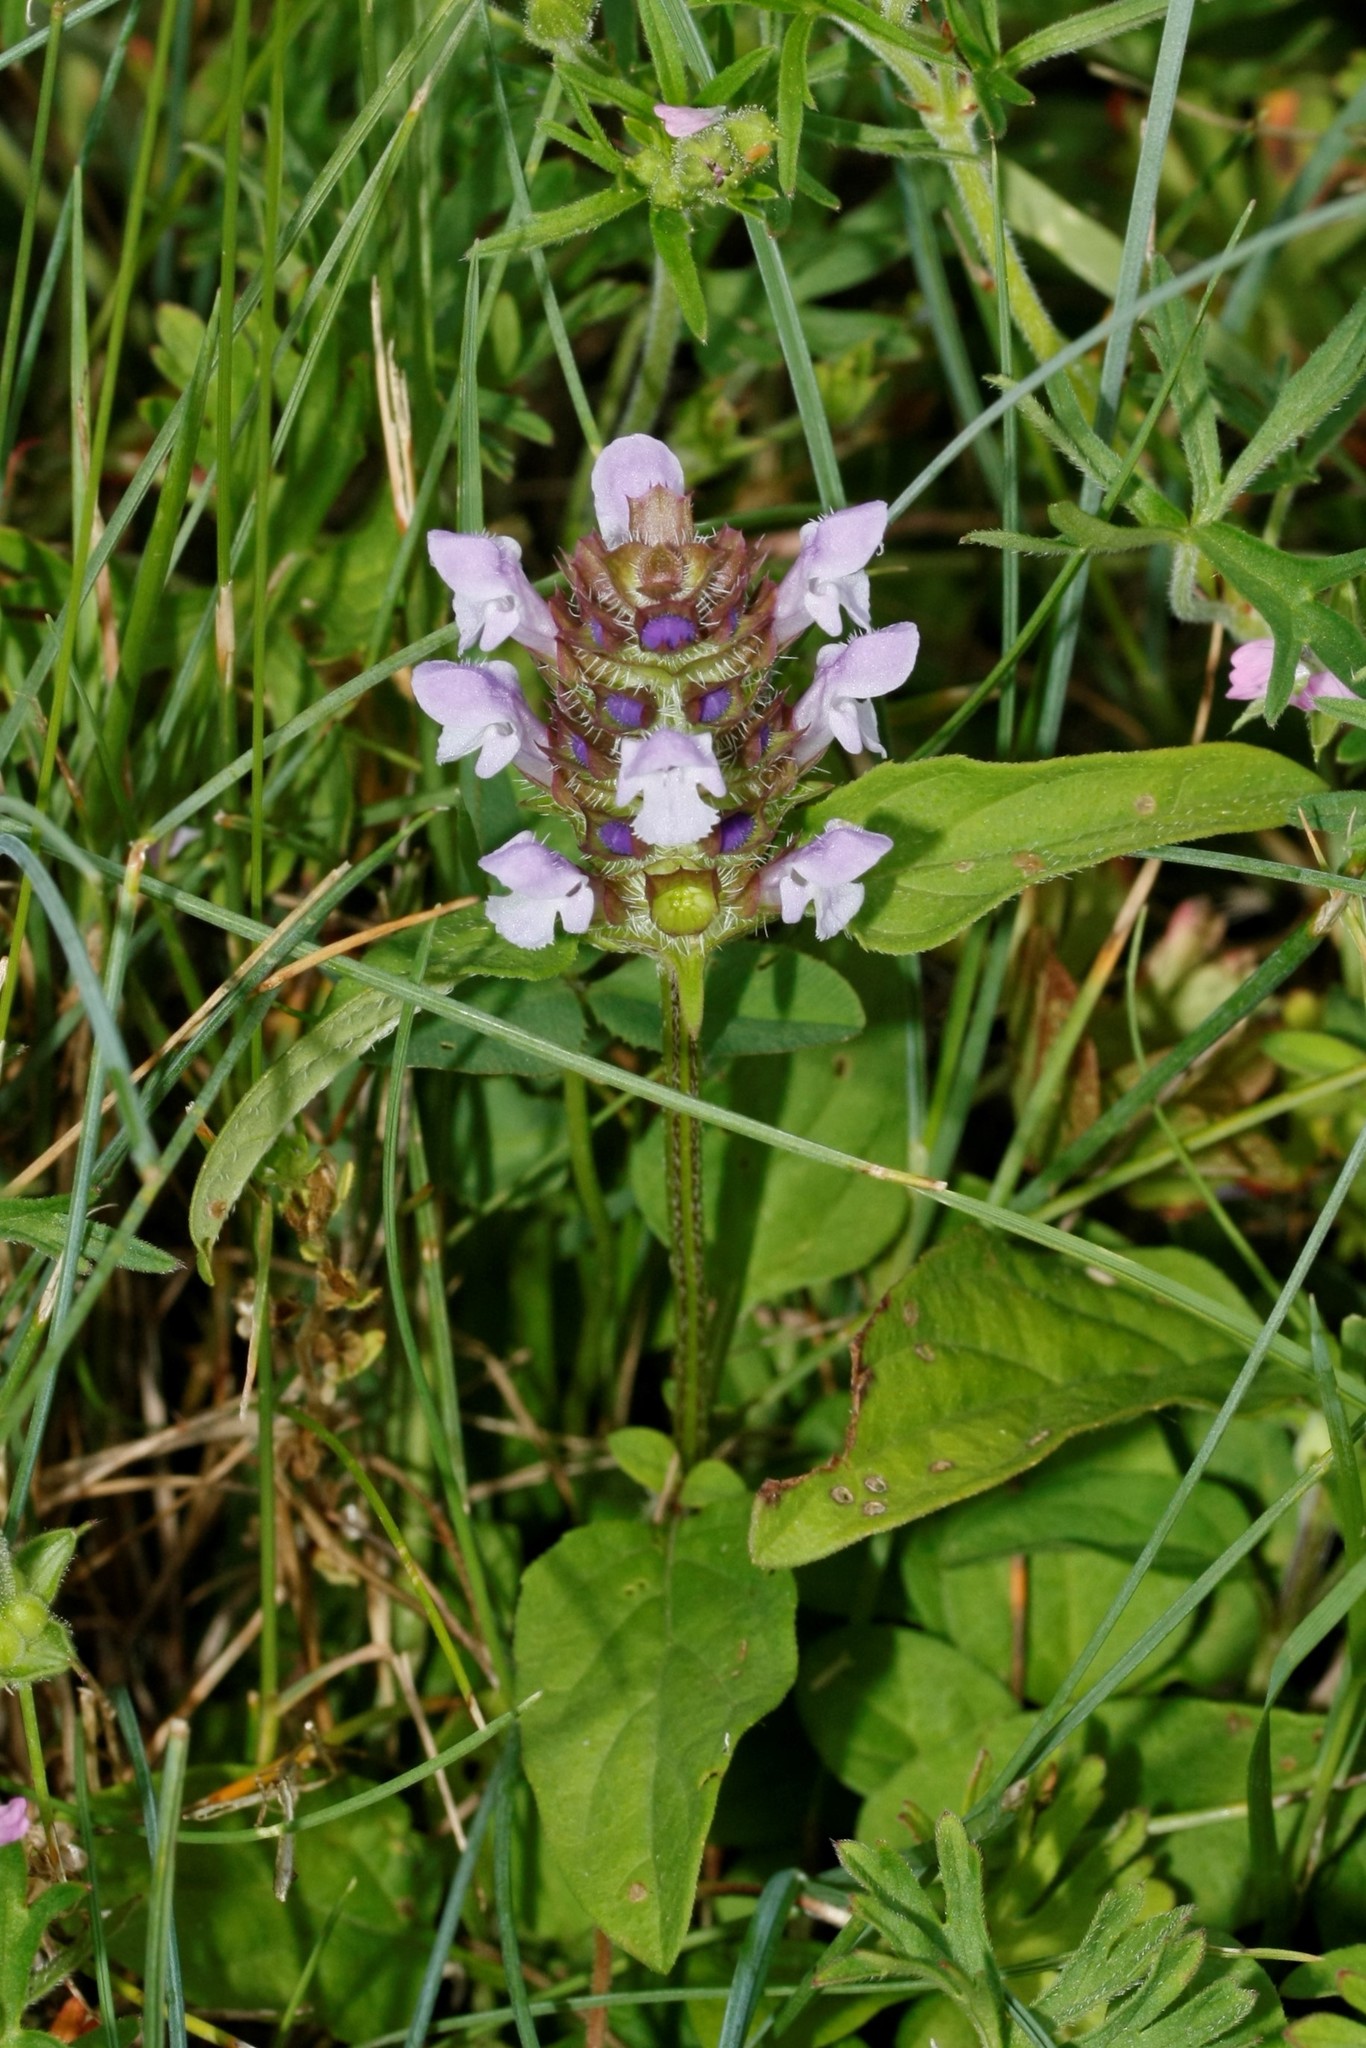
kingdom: Plantae
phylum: Tracheophyta
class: Magnoliopsida
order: Lamiales
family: Lamiaceae
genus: Prunella
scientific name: Prunella vulgaris
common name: Heal-all
